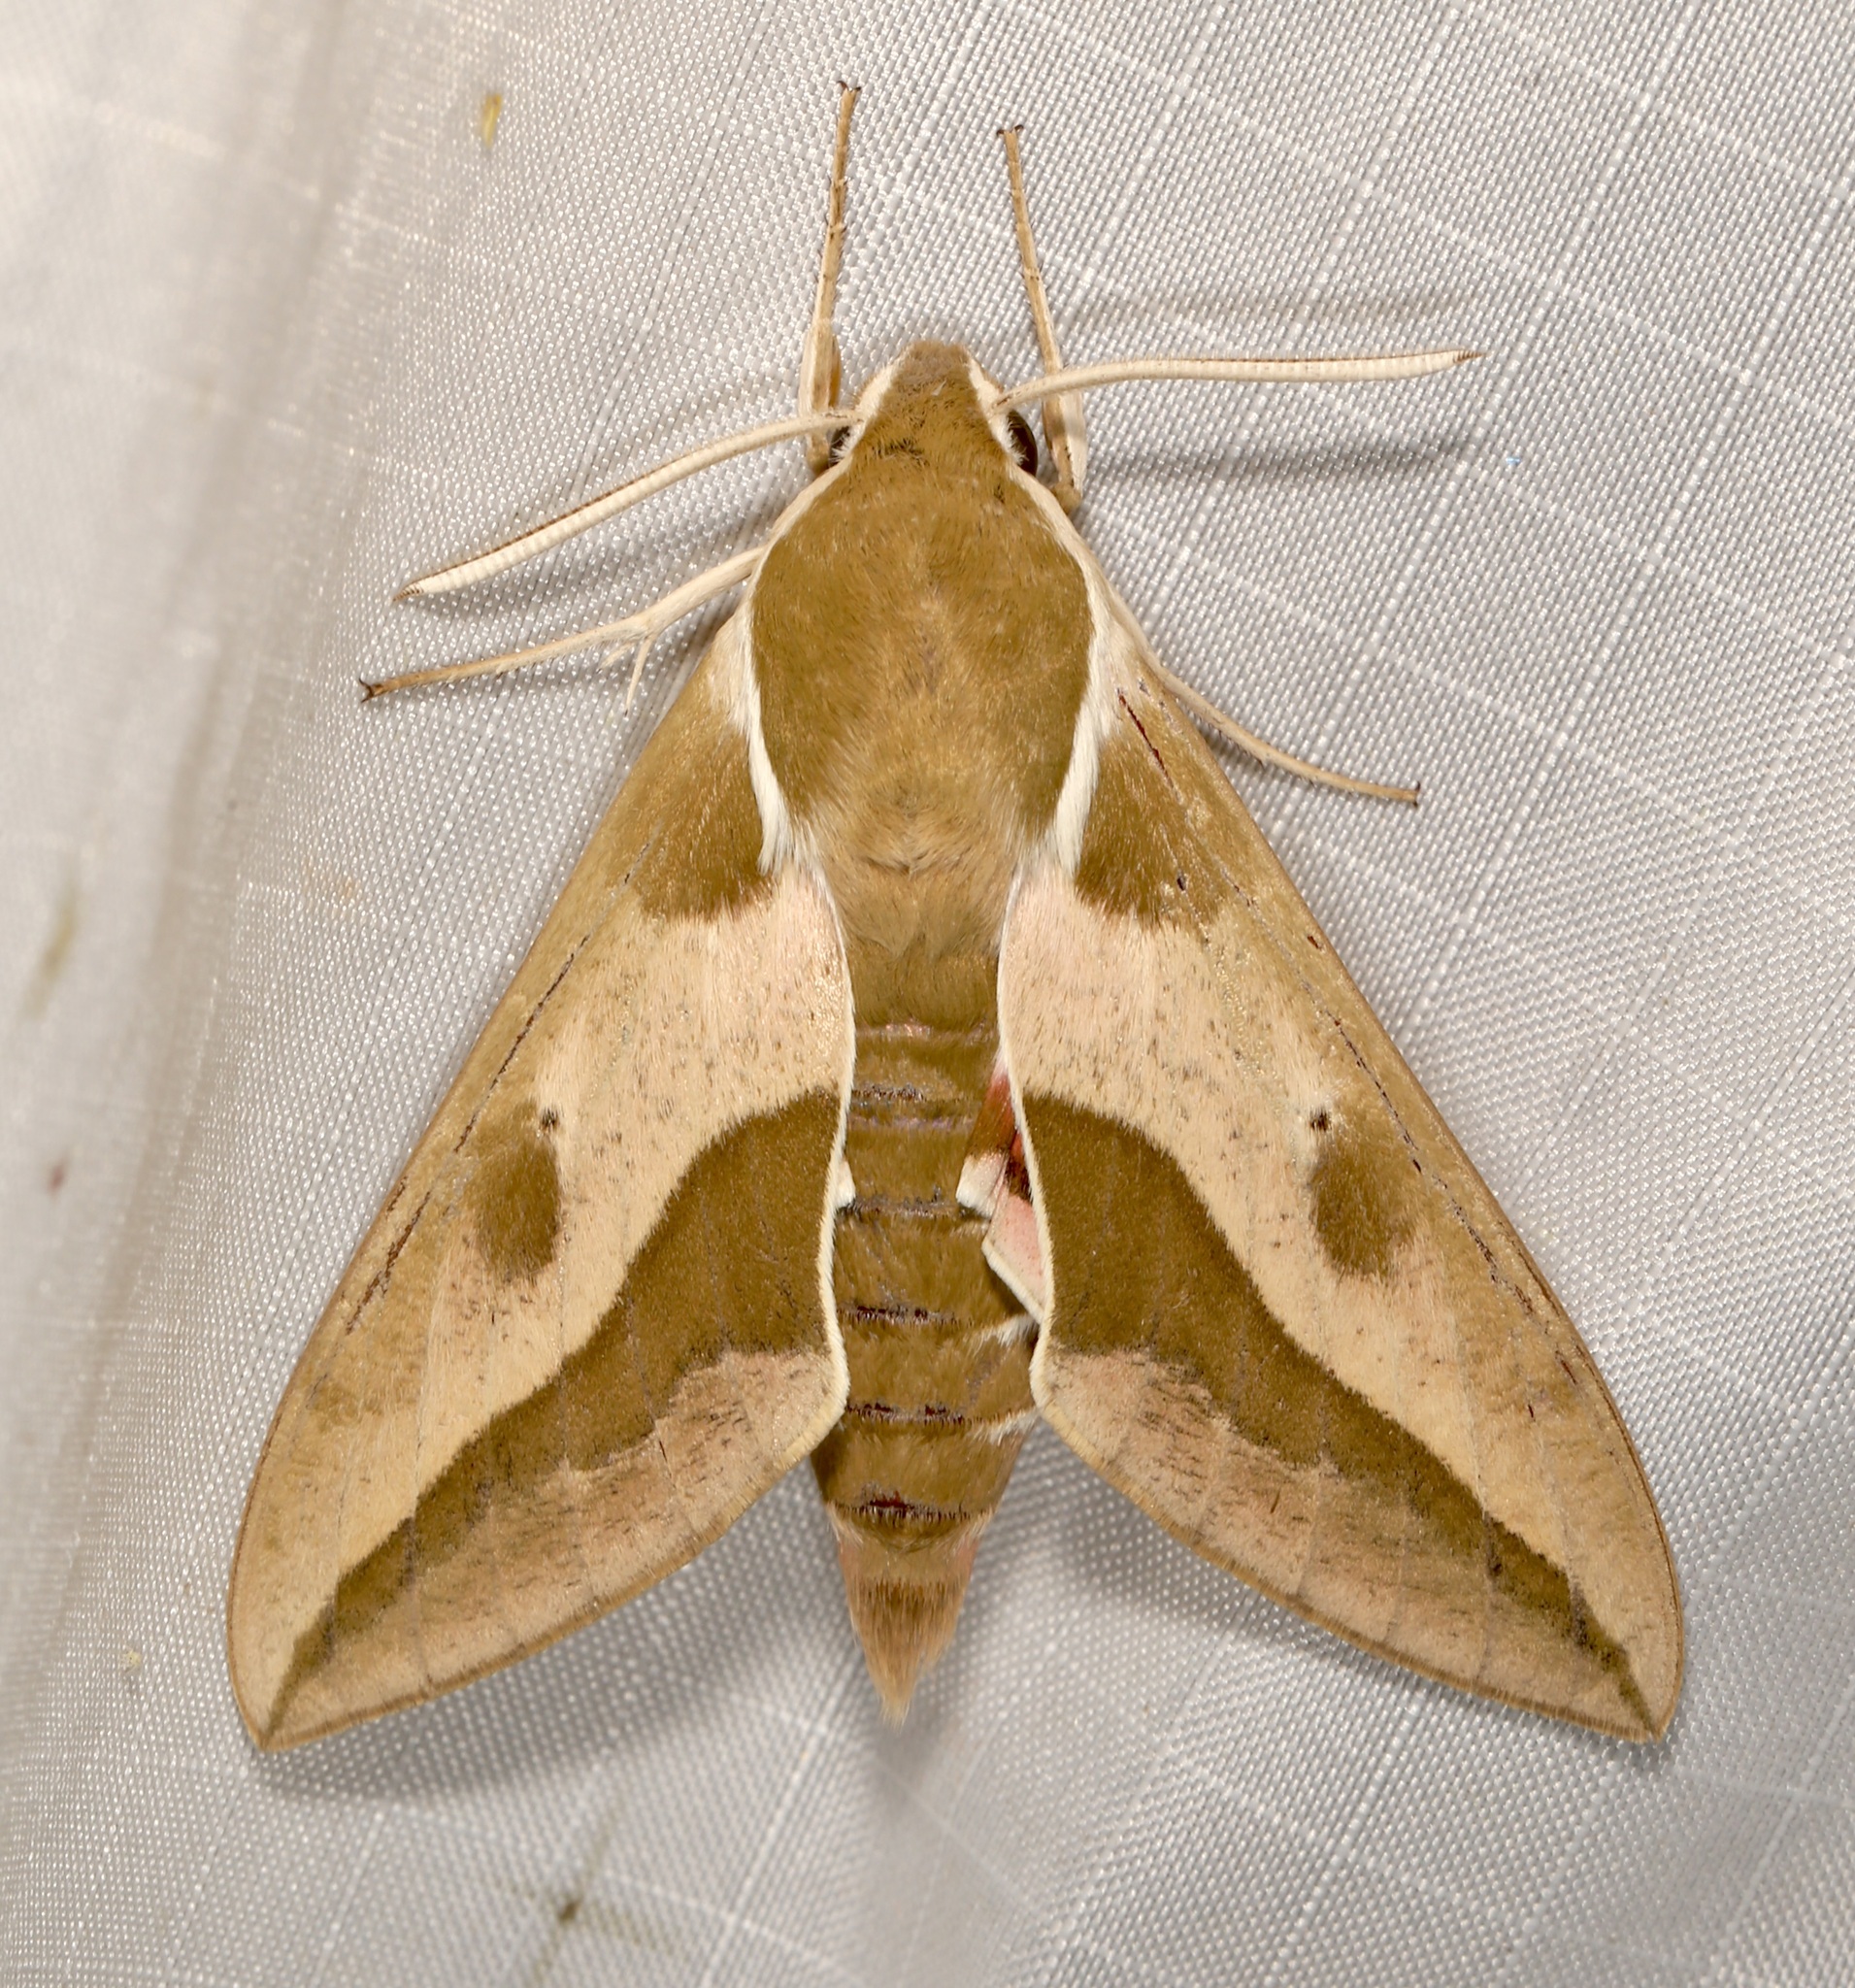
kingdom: Animalia
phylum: Arthropoda
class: Insecta
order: Lepidoptera
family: Sphingidae
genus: Hyles
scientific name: Hyles euphorbiae
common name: Spurge hawk-moth
